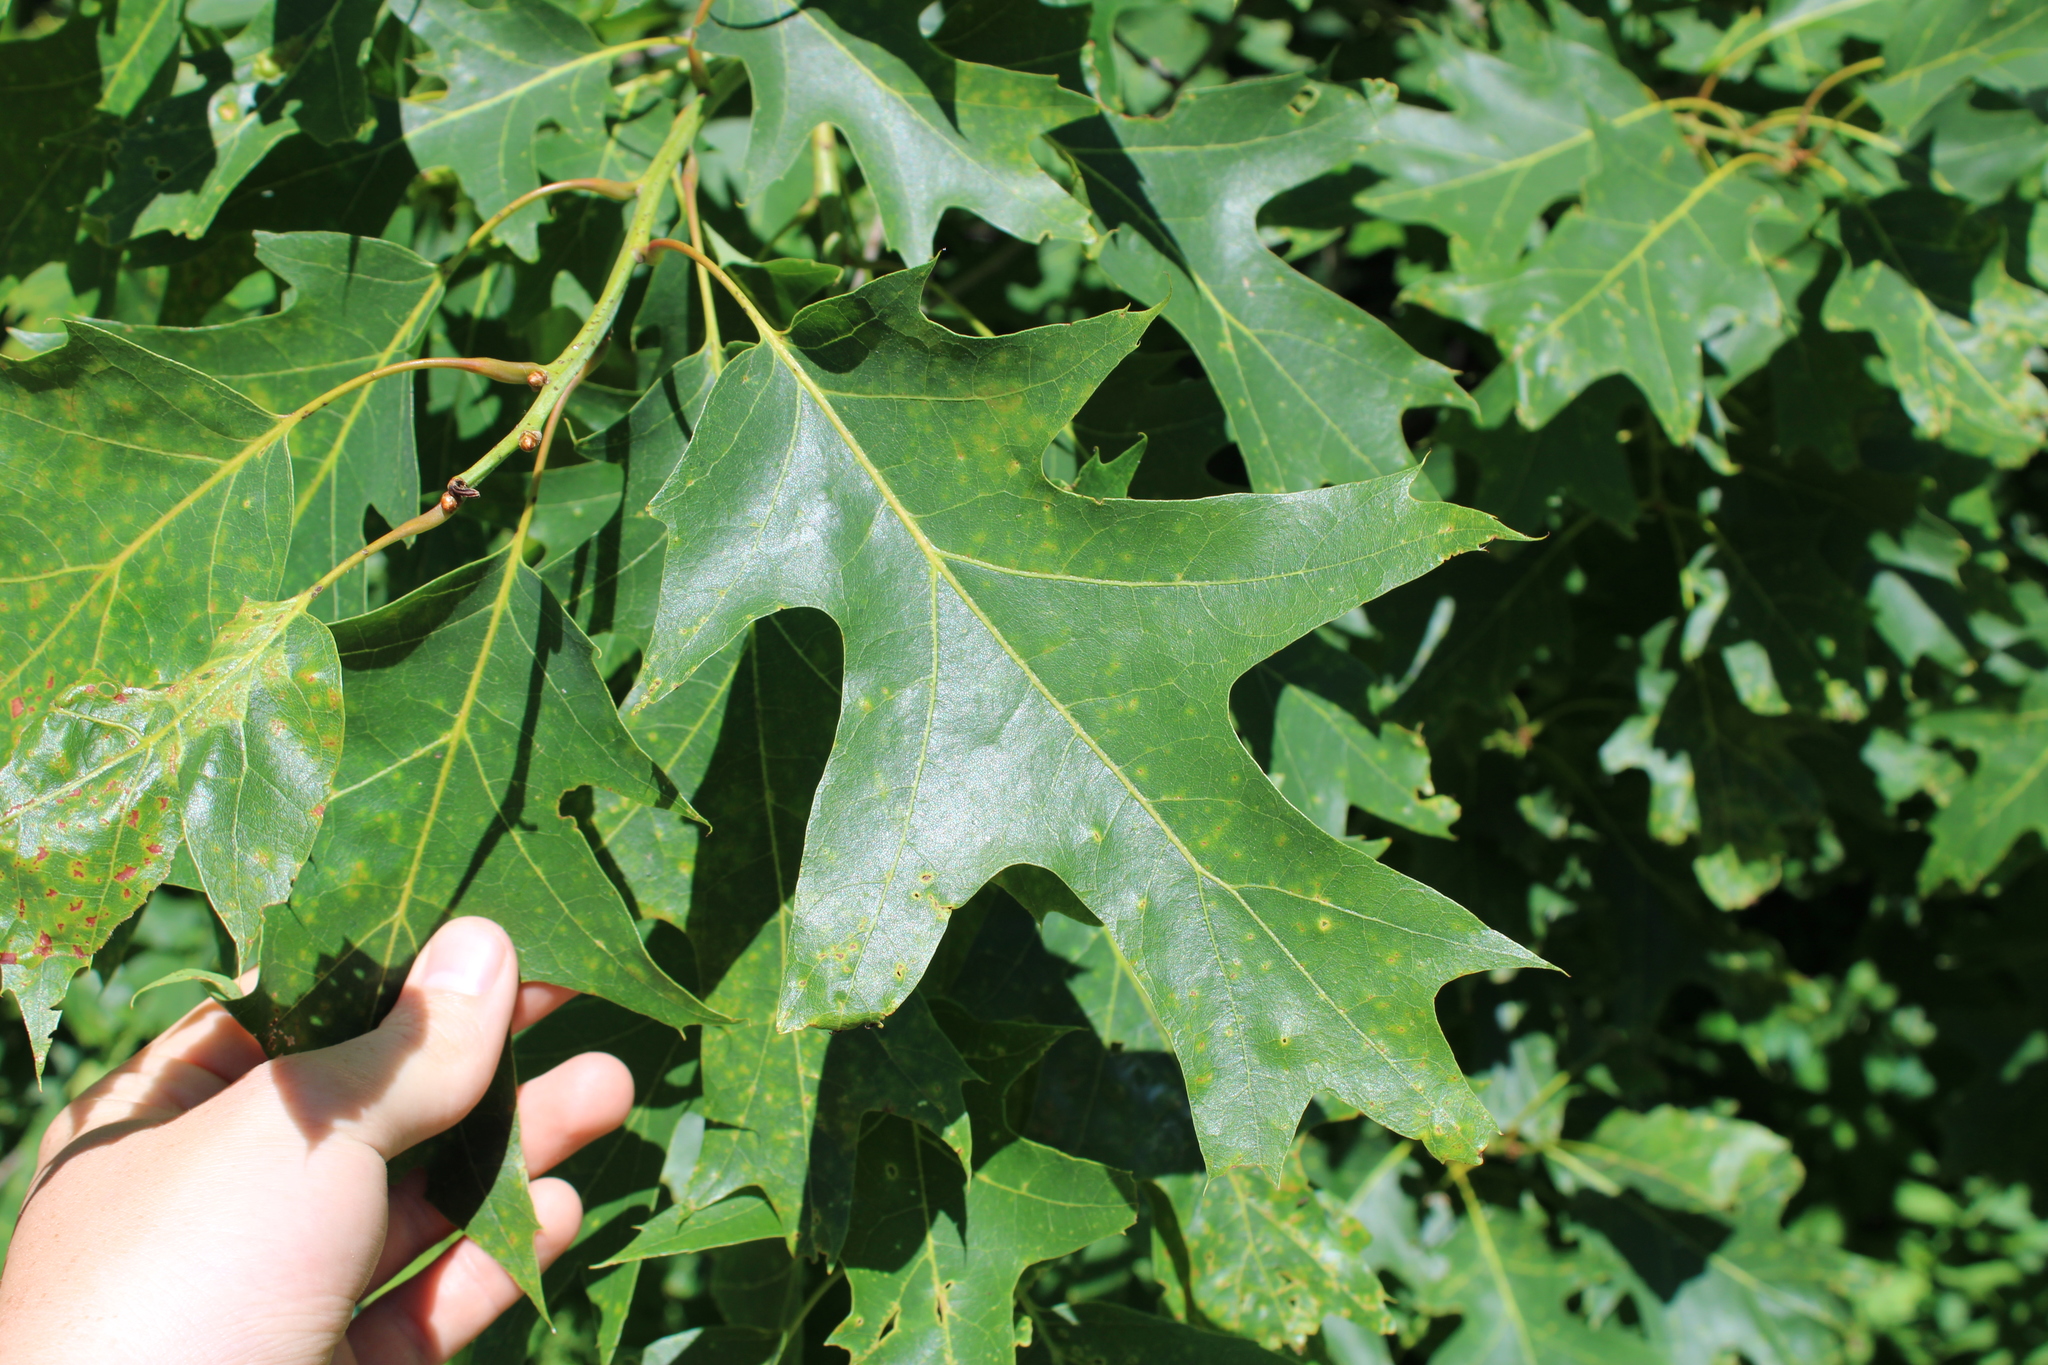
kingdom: Plantae
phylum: Tracheophyta
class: Magnoliopsida
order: Fagales
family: Fagaceae
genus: Quercus
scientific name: Quercus rubra
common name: Red oak
